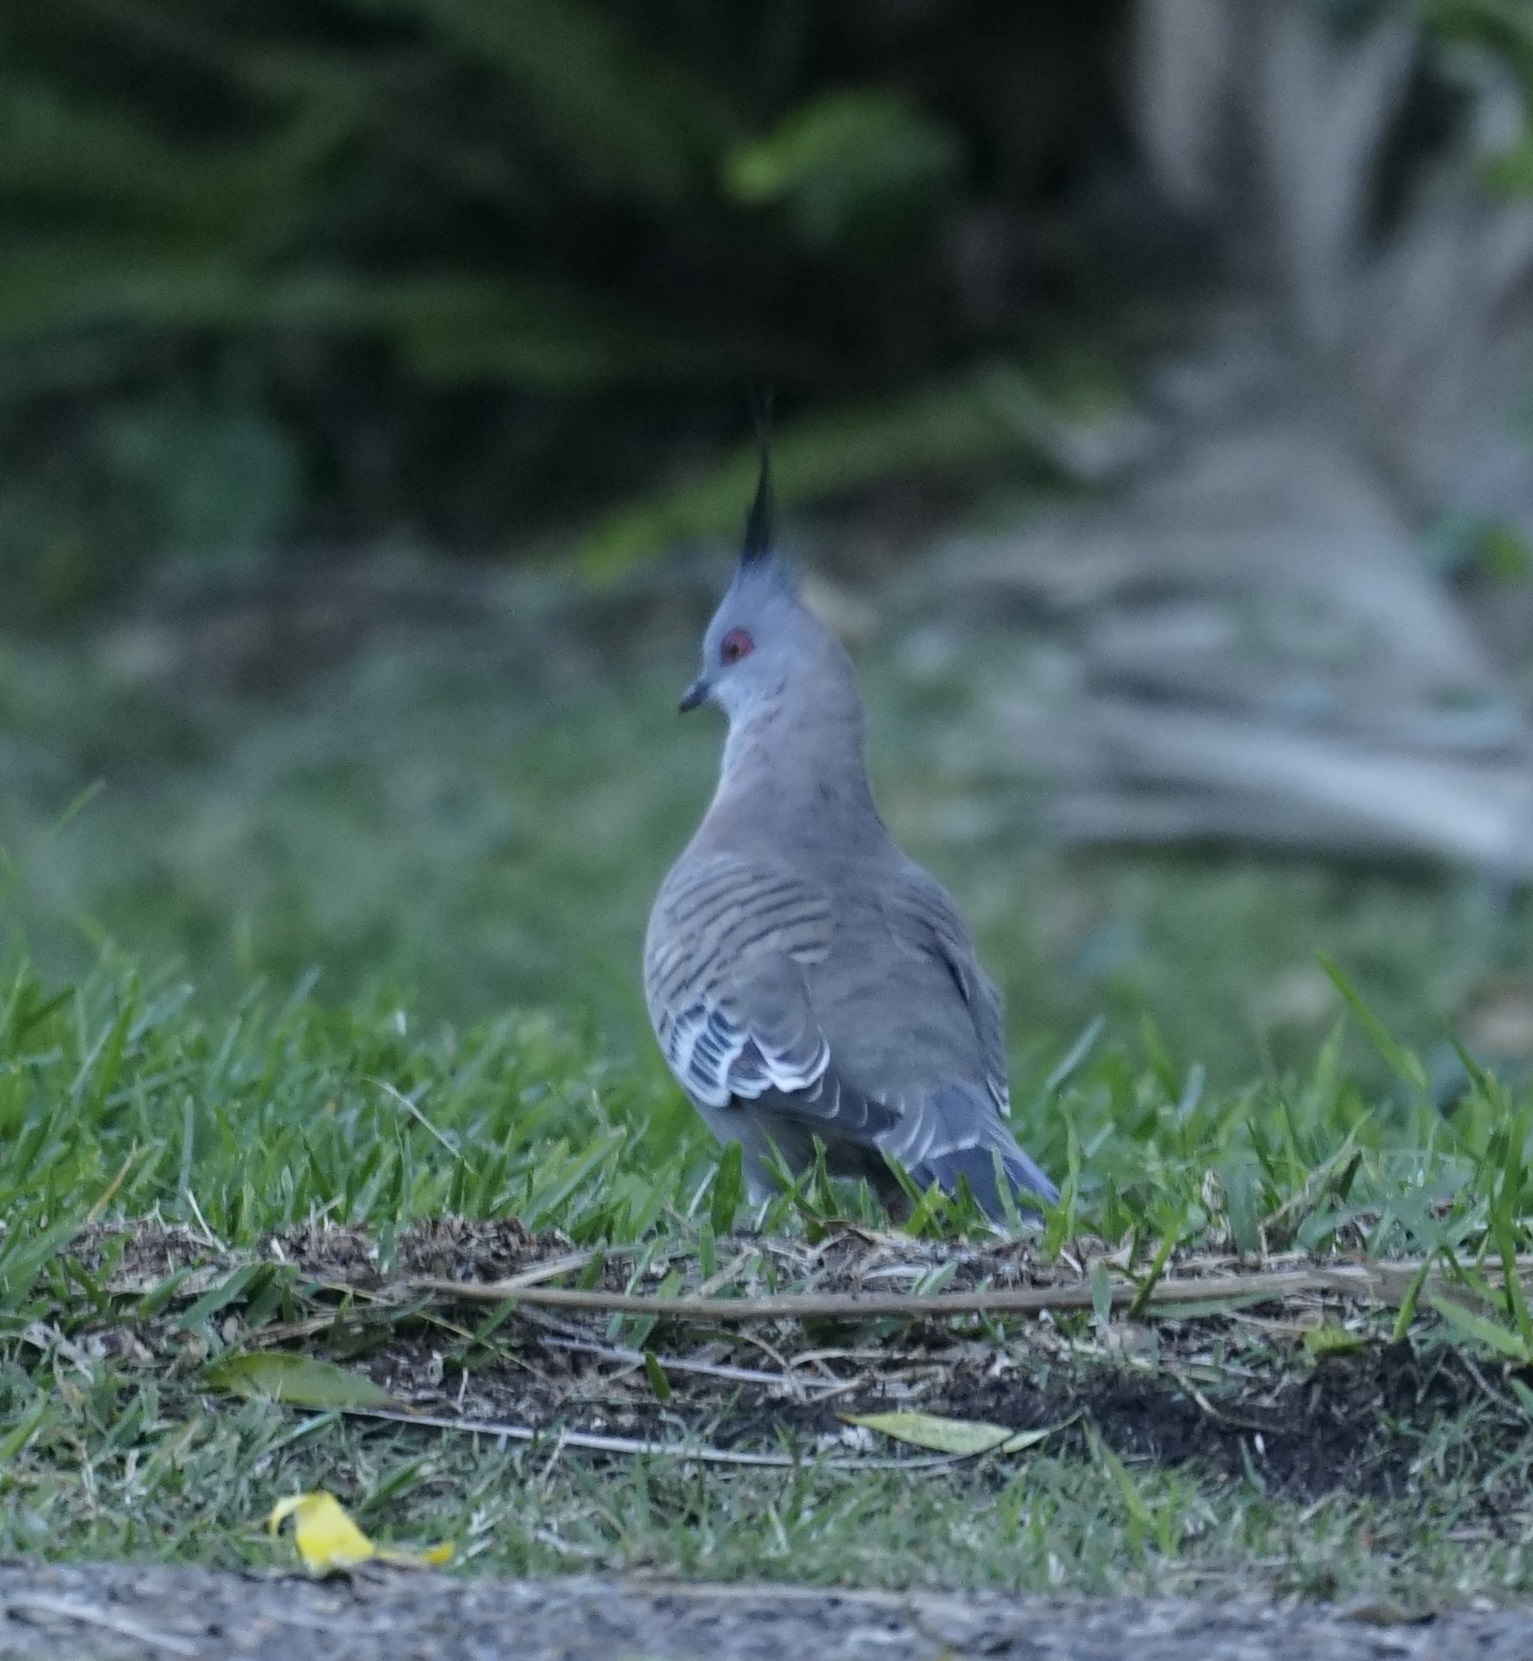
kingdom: Animalia
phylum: Chordata
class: Aves
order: Columbiformes
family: Columbidae
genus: Ocyphaps
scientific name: Ocyphaps lophotes
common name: Crested pigeon
